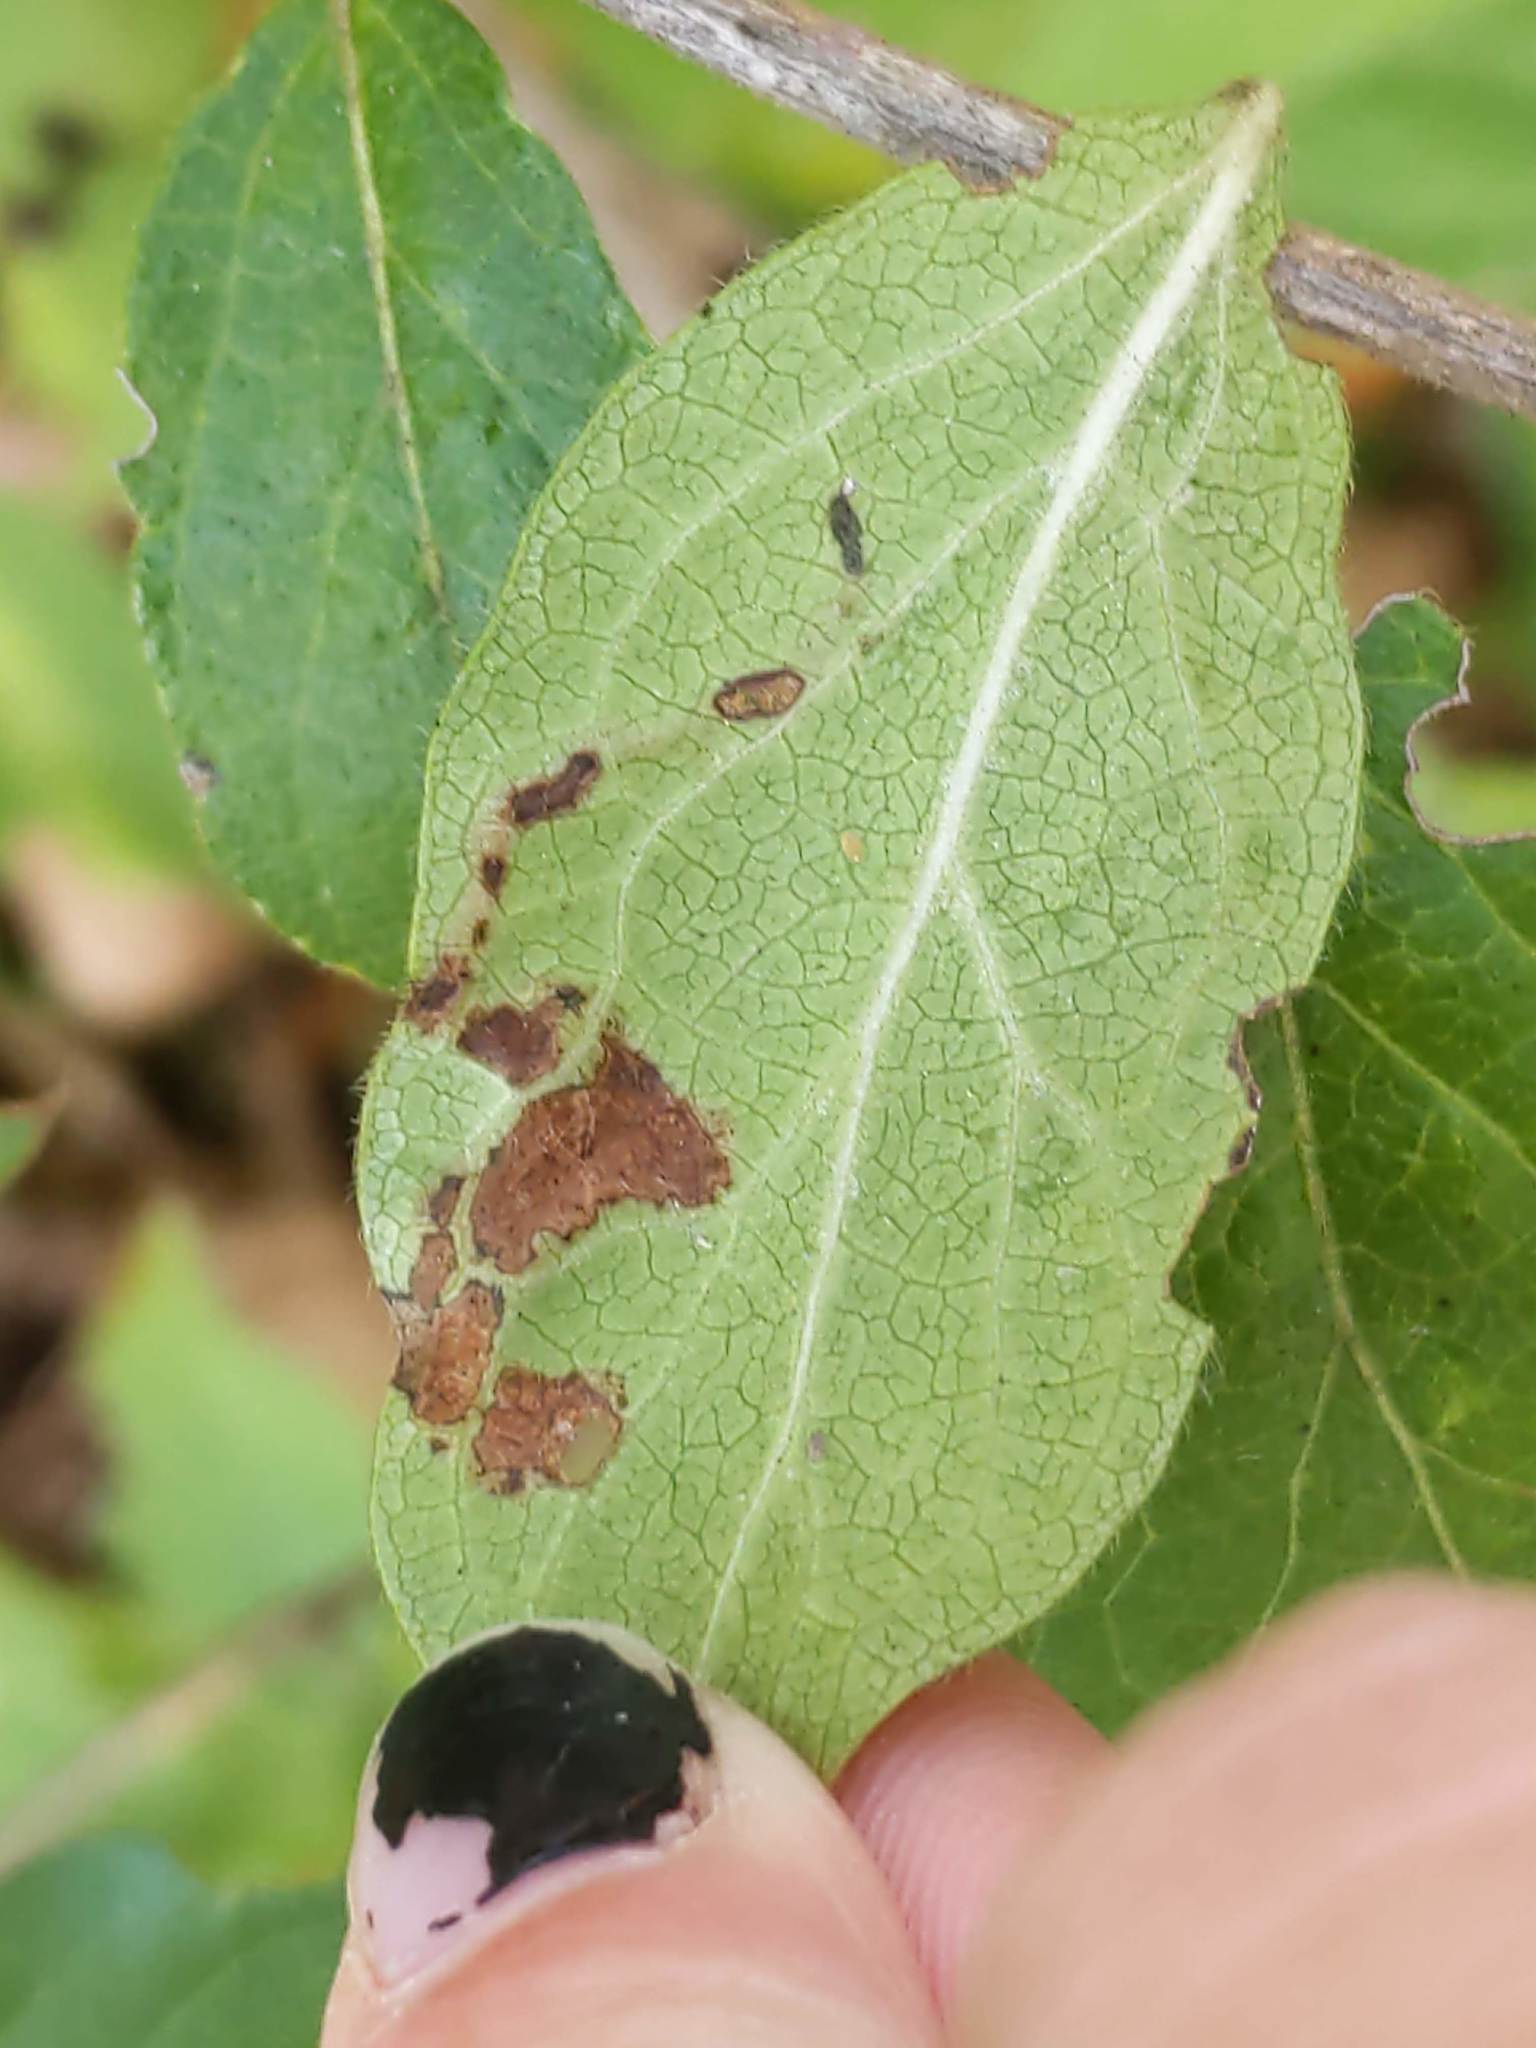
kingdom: Animalia
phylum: Arthropoda
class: Insecta
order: Diptera
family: Agromyzidae
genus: Aulagromyza
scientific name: Aulagromyza
